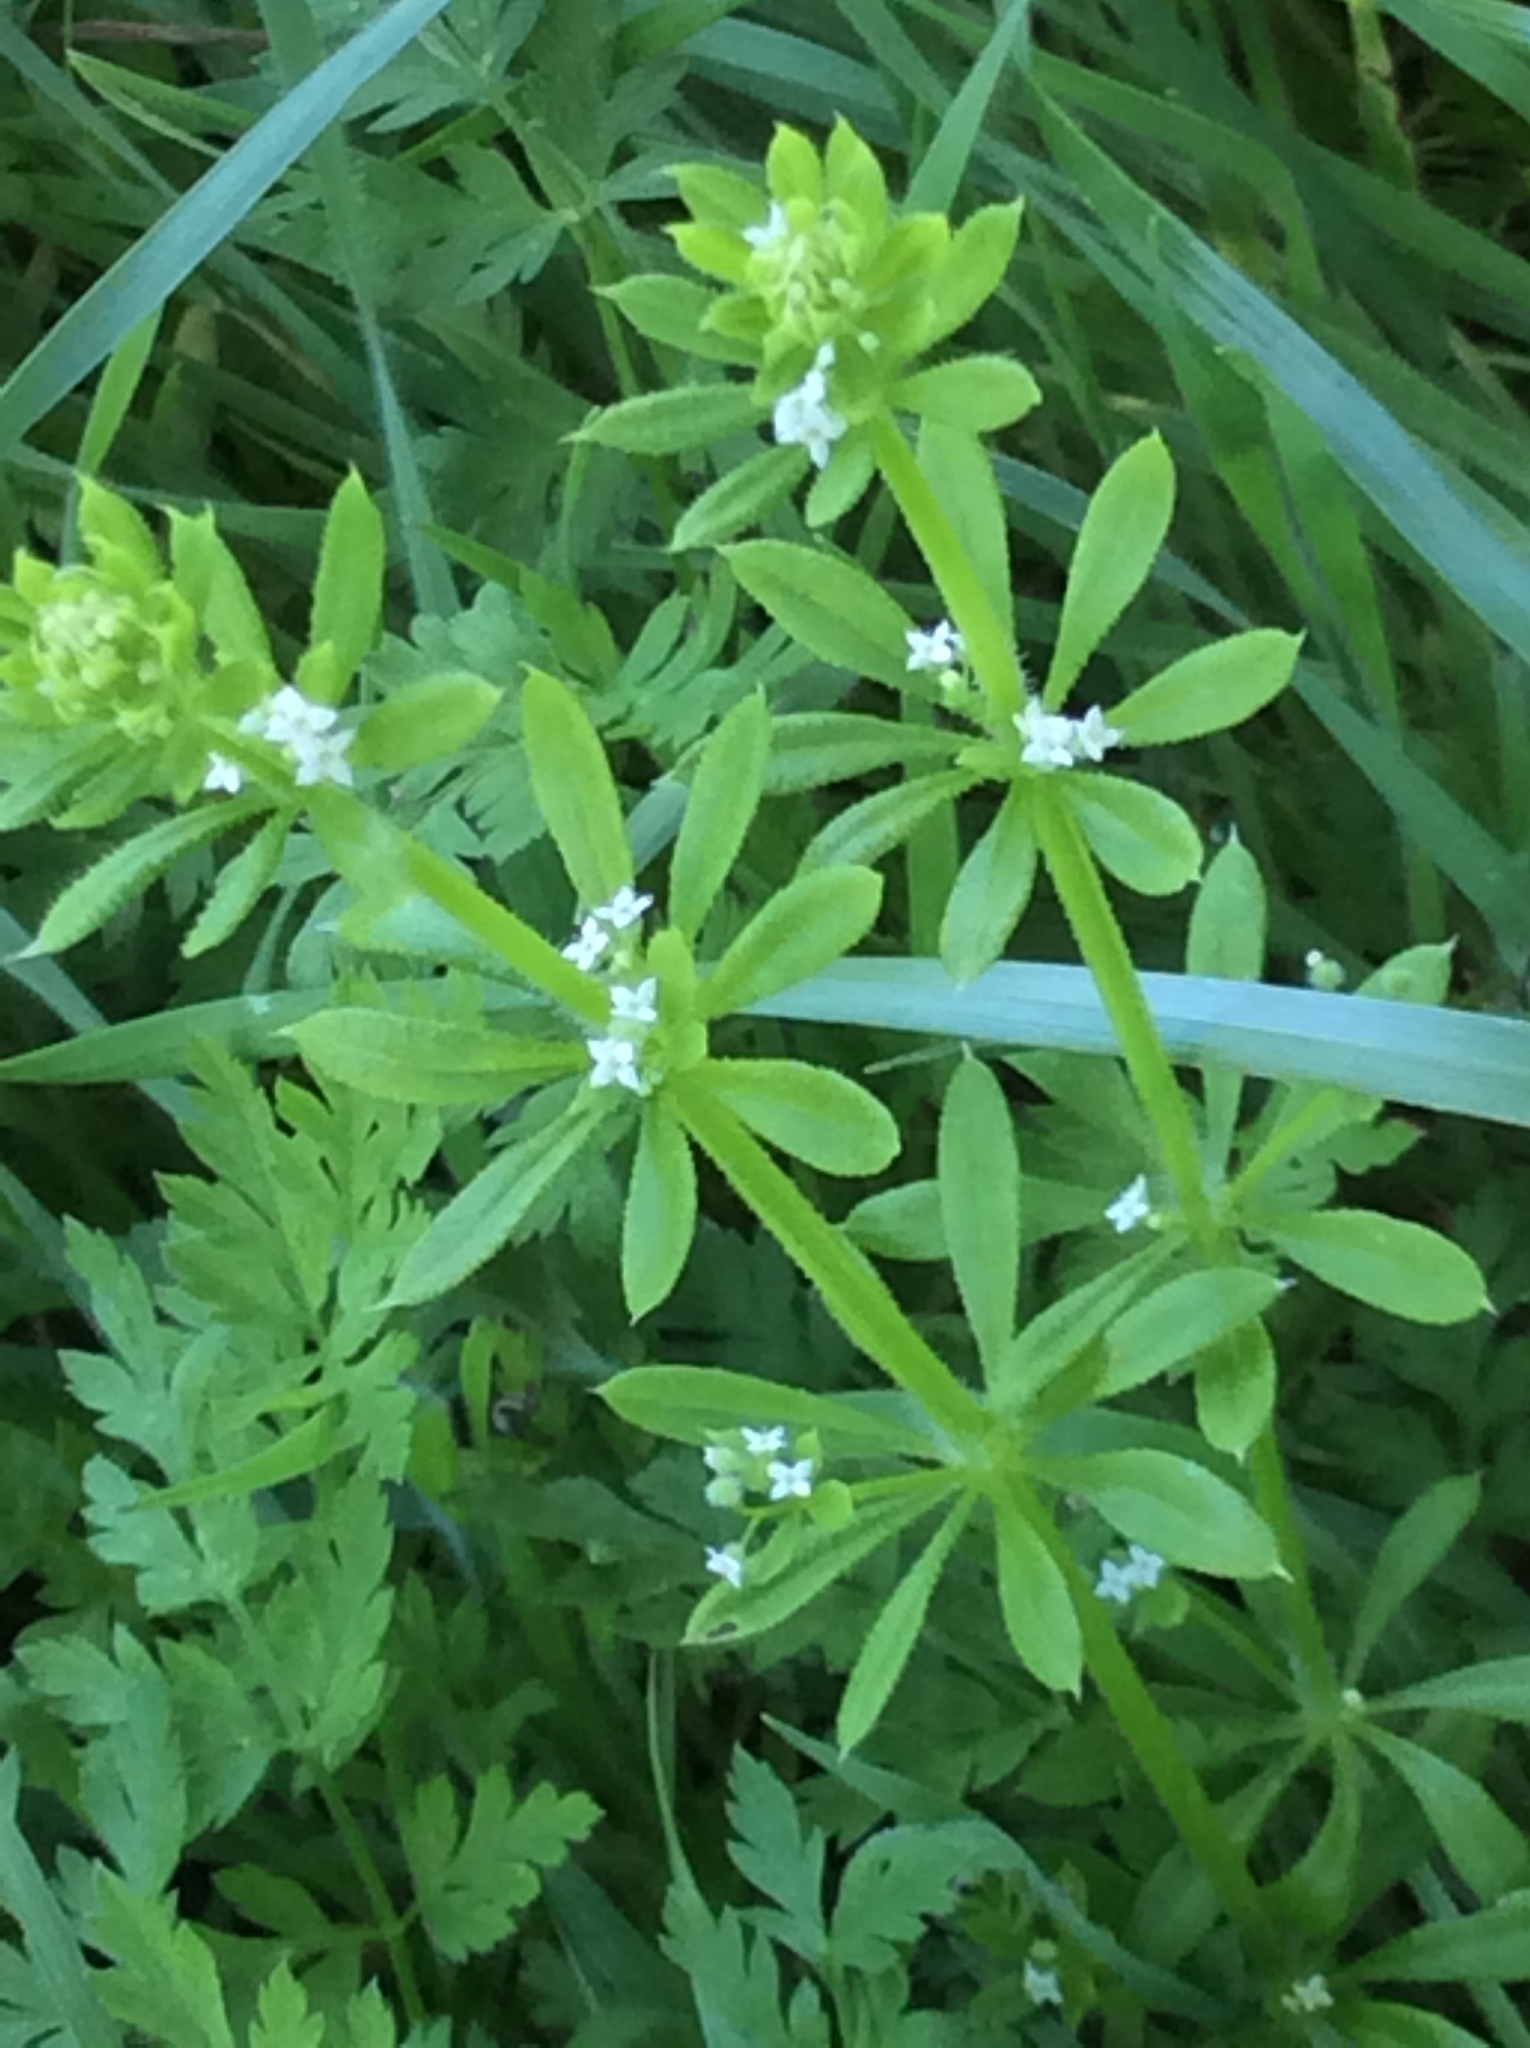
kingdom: Plantae
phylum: Tracheophyta
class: Magnoliopsida
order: Gentianales
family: Rubiaceae
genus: Galium
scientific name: Galium aparine
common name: Cleavers
